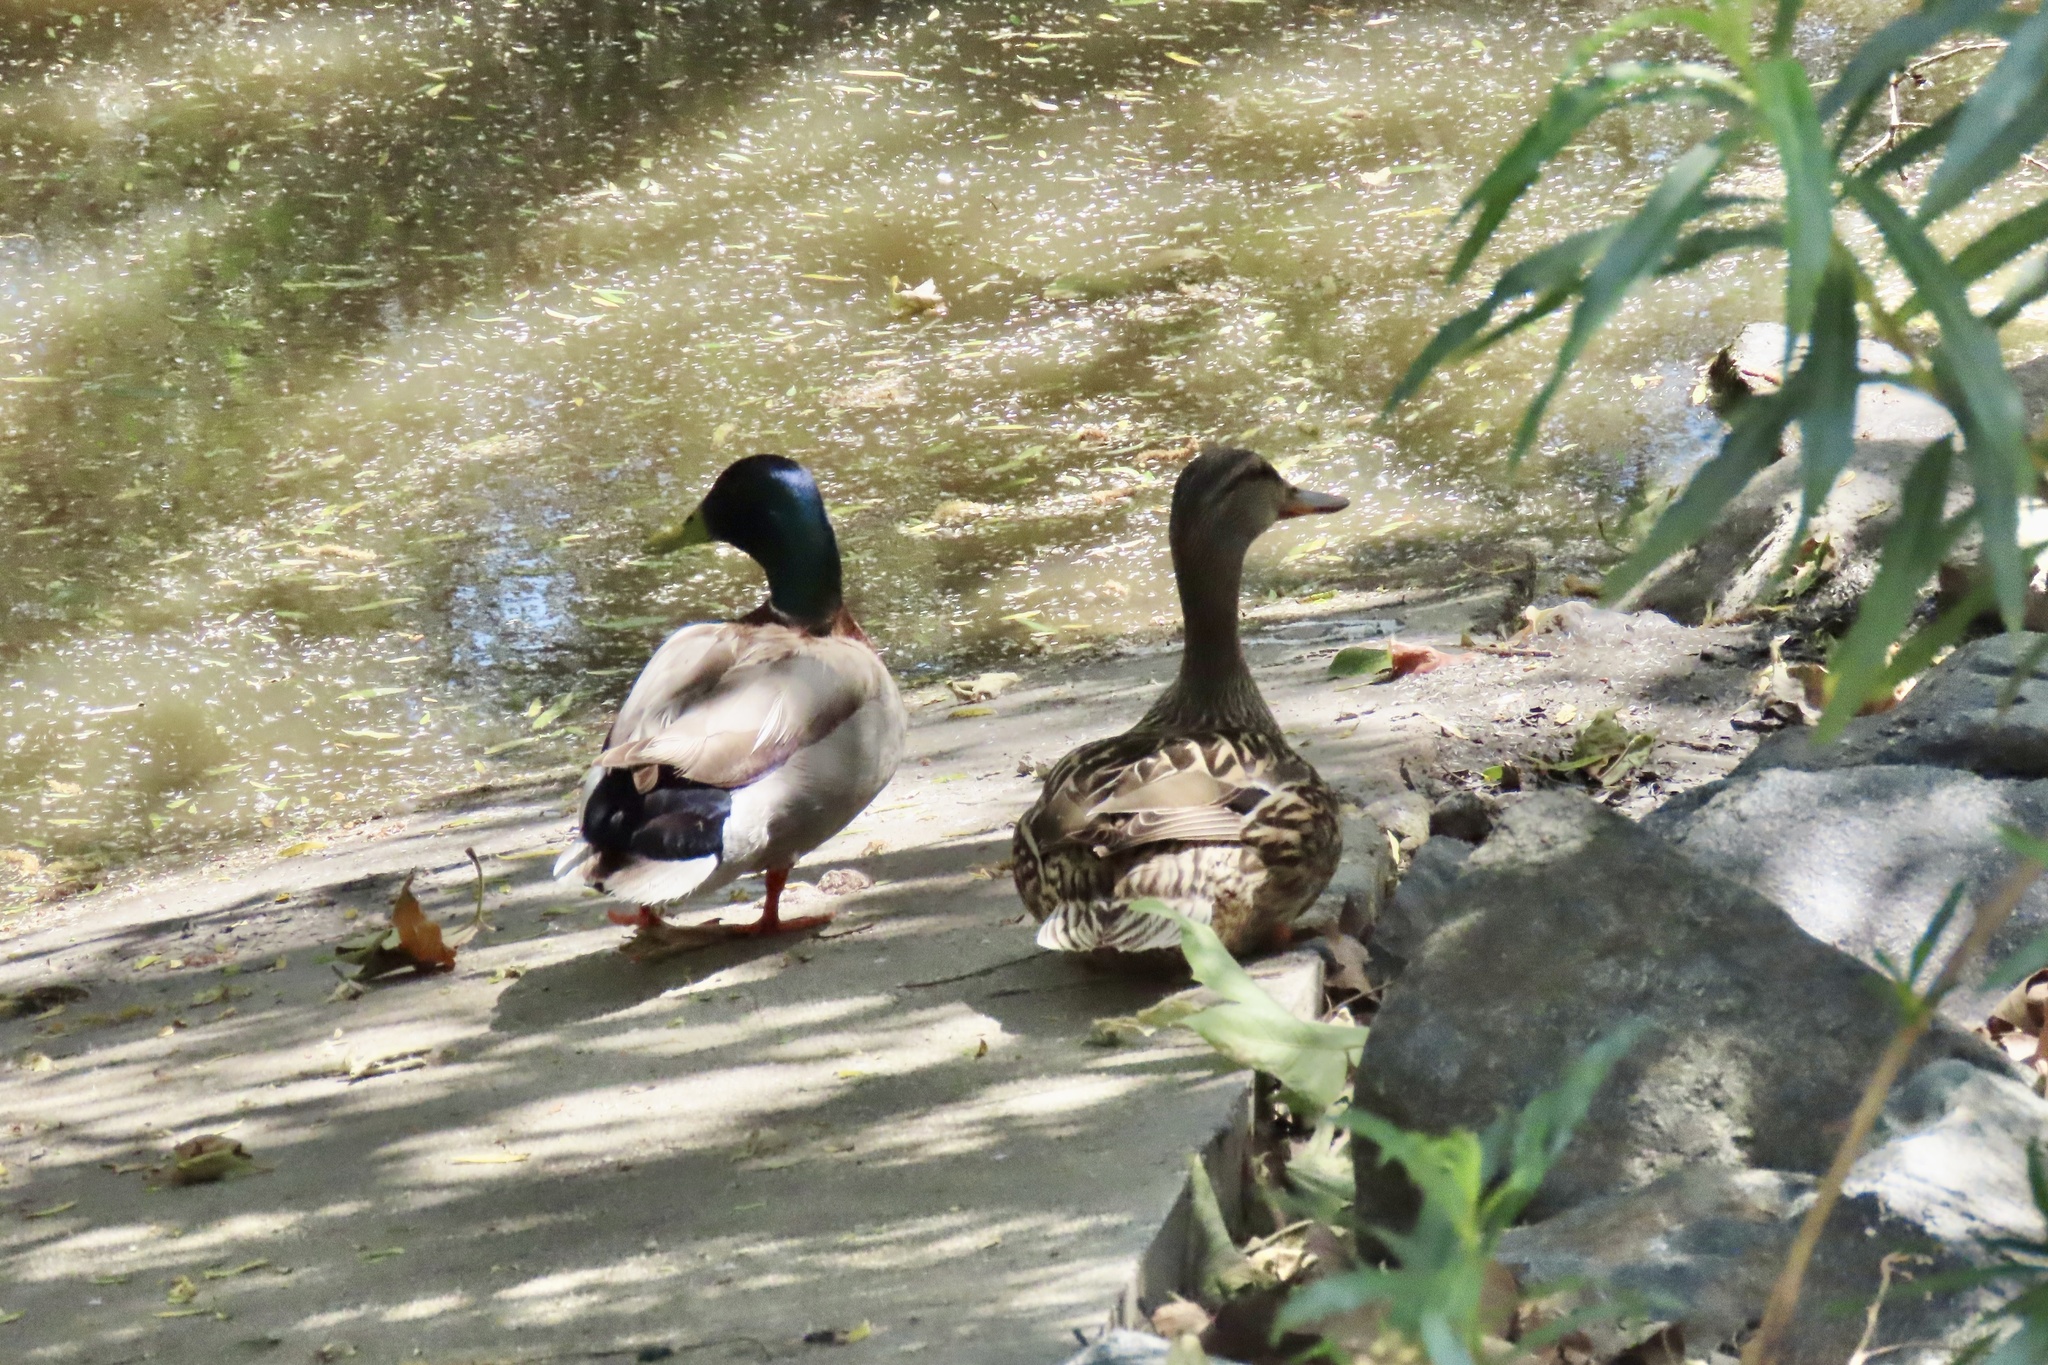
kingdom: Animalia
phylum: Chordata
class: Aves
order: Anseriformes
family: Anatidae
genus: Anas
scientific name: Anas platyrhynchos
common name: Mallard
